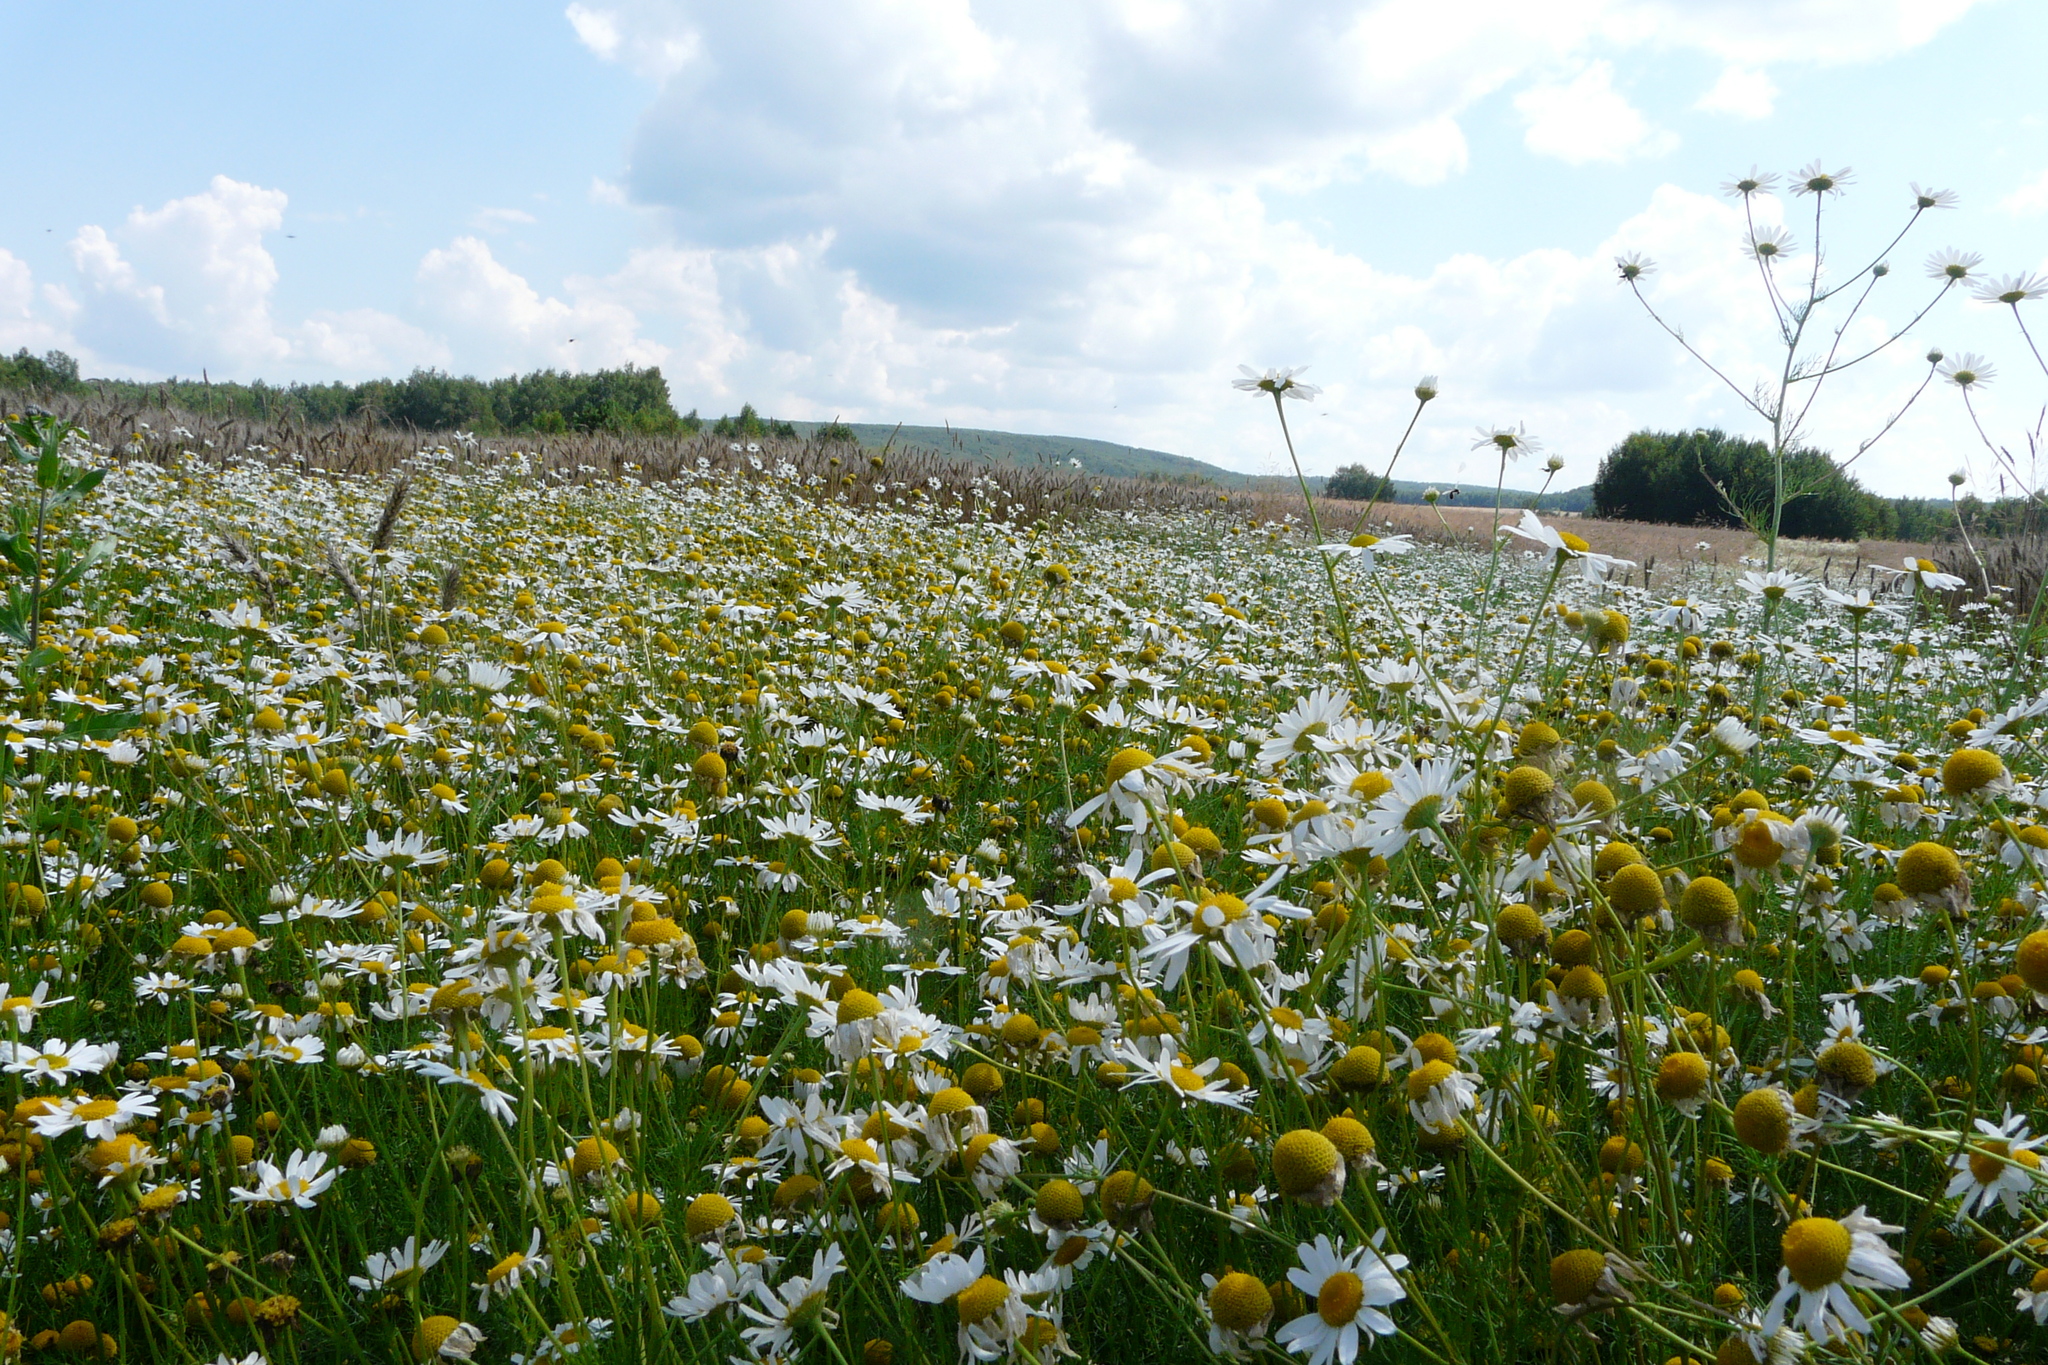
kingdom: Plantae
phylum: Tracheophyta
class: Magnoliopsida
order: Asterales
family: Asteraceae
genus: Tripleurospermum
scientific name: Tripleurospermum inodorum
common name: Scentless mayweed
